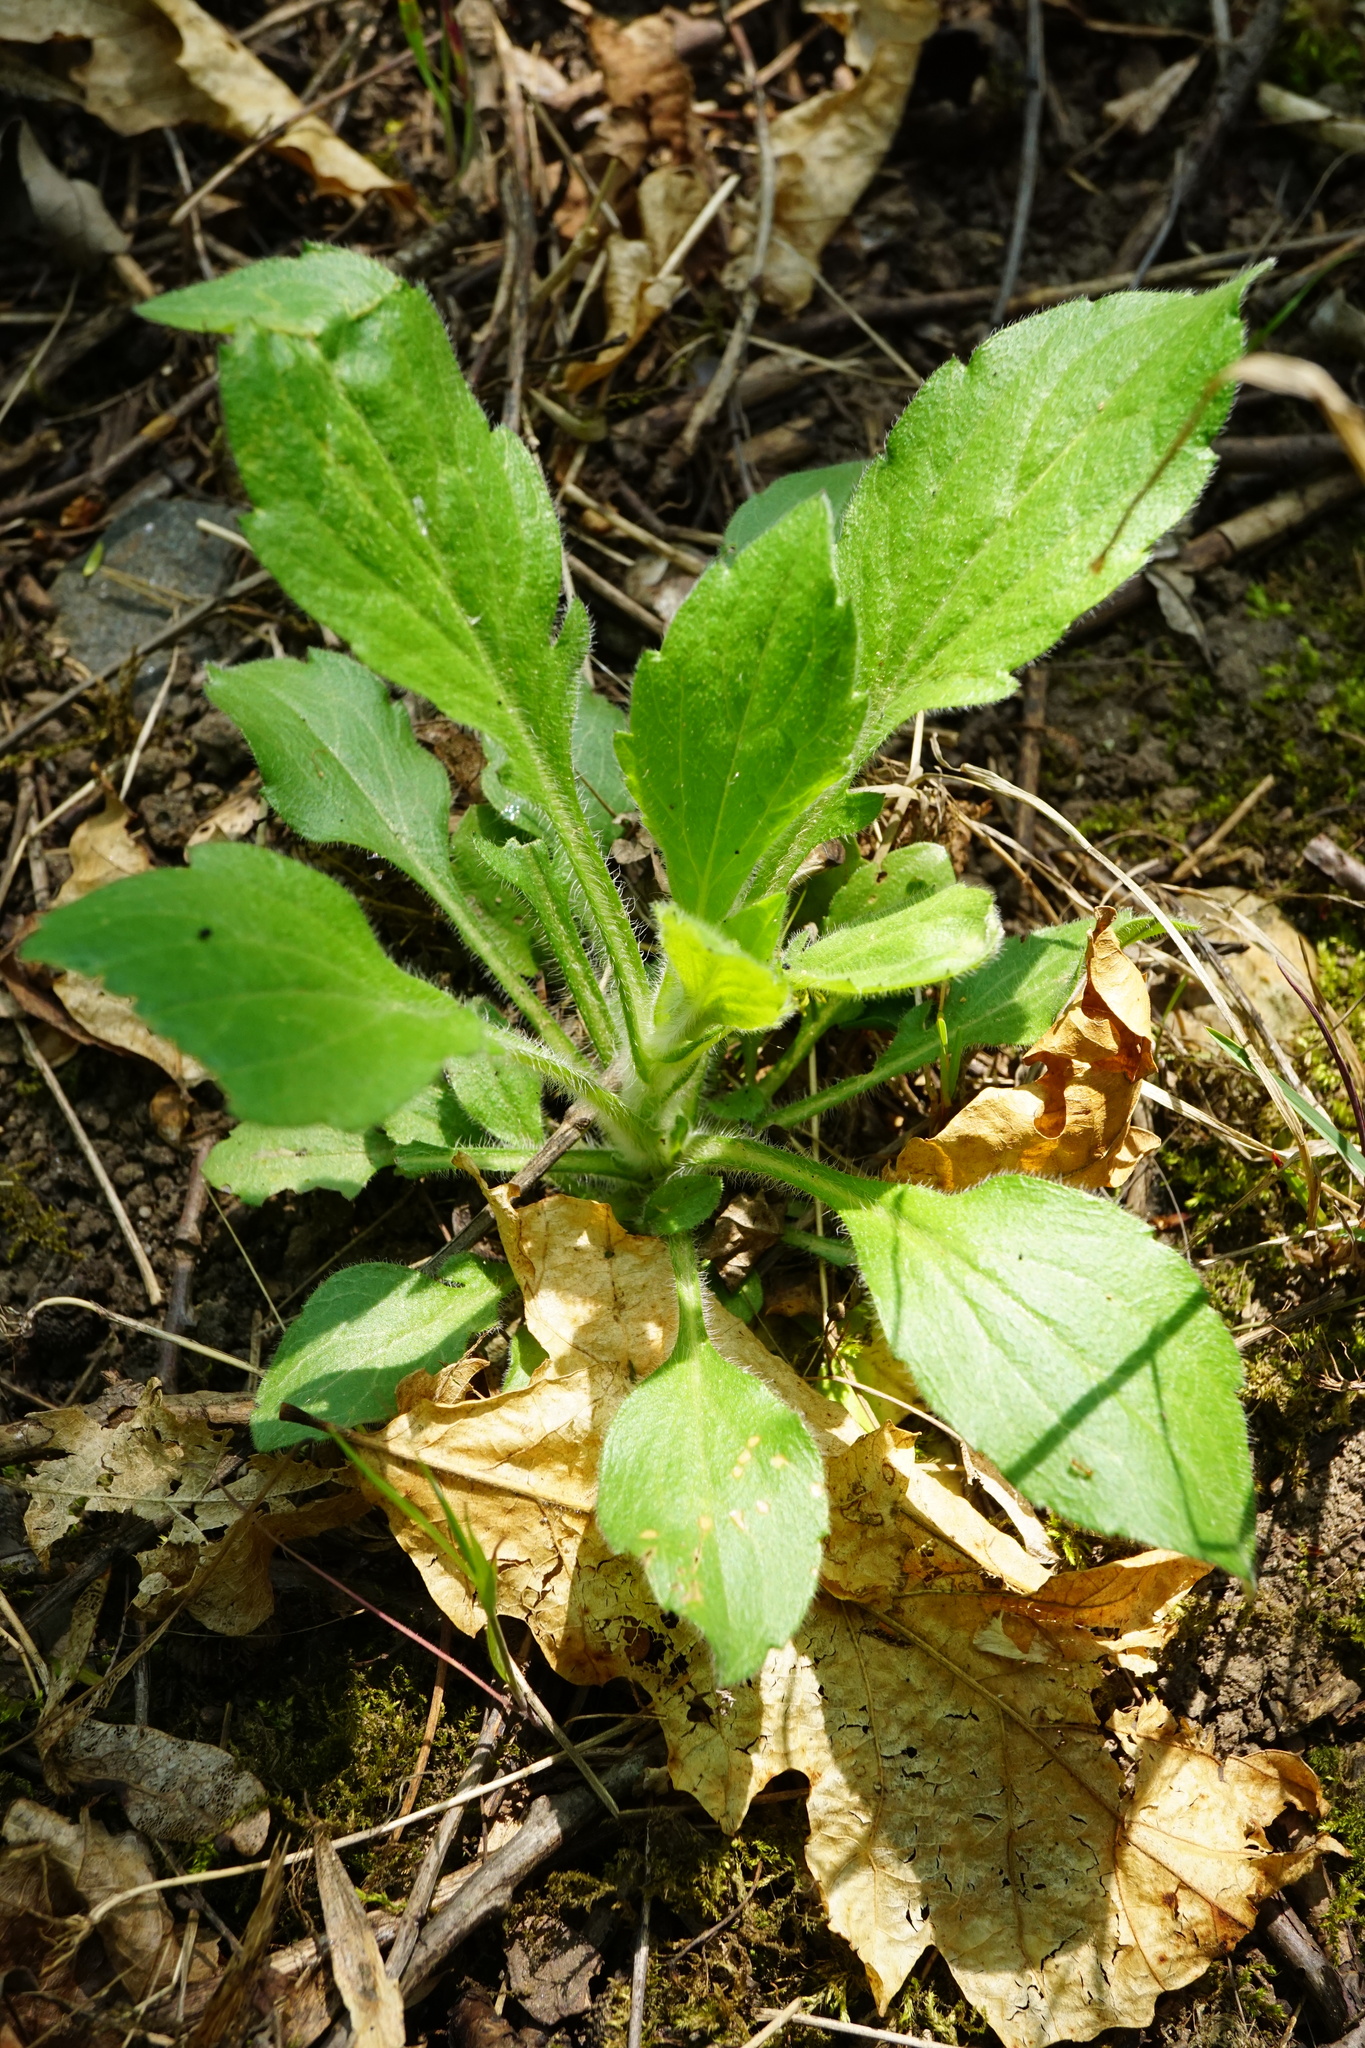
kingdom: Plantae
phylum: Tracheophyta
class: Magnoliopsida
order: Asterales
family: Asteraceae
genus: Erigeron
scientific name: Erigeron annuus
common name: Tall fleabane
